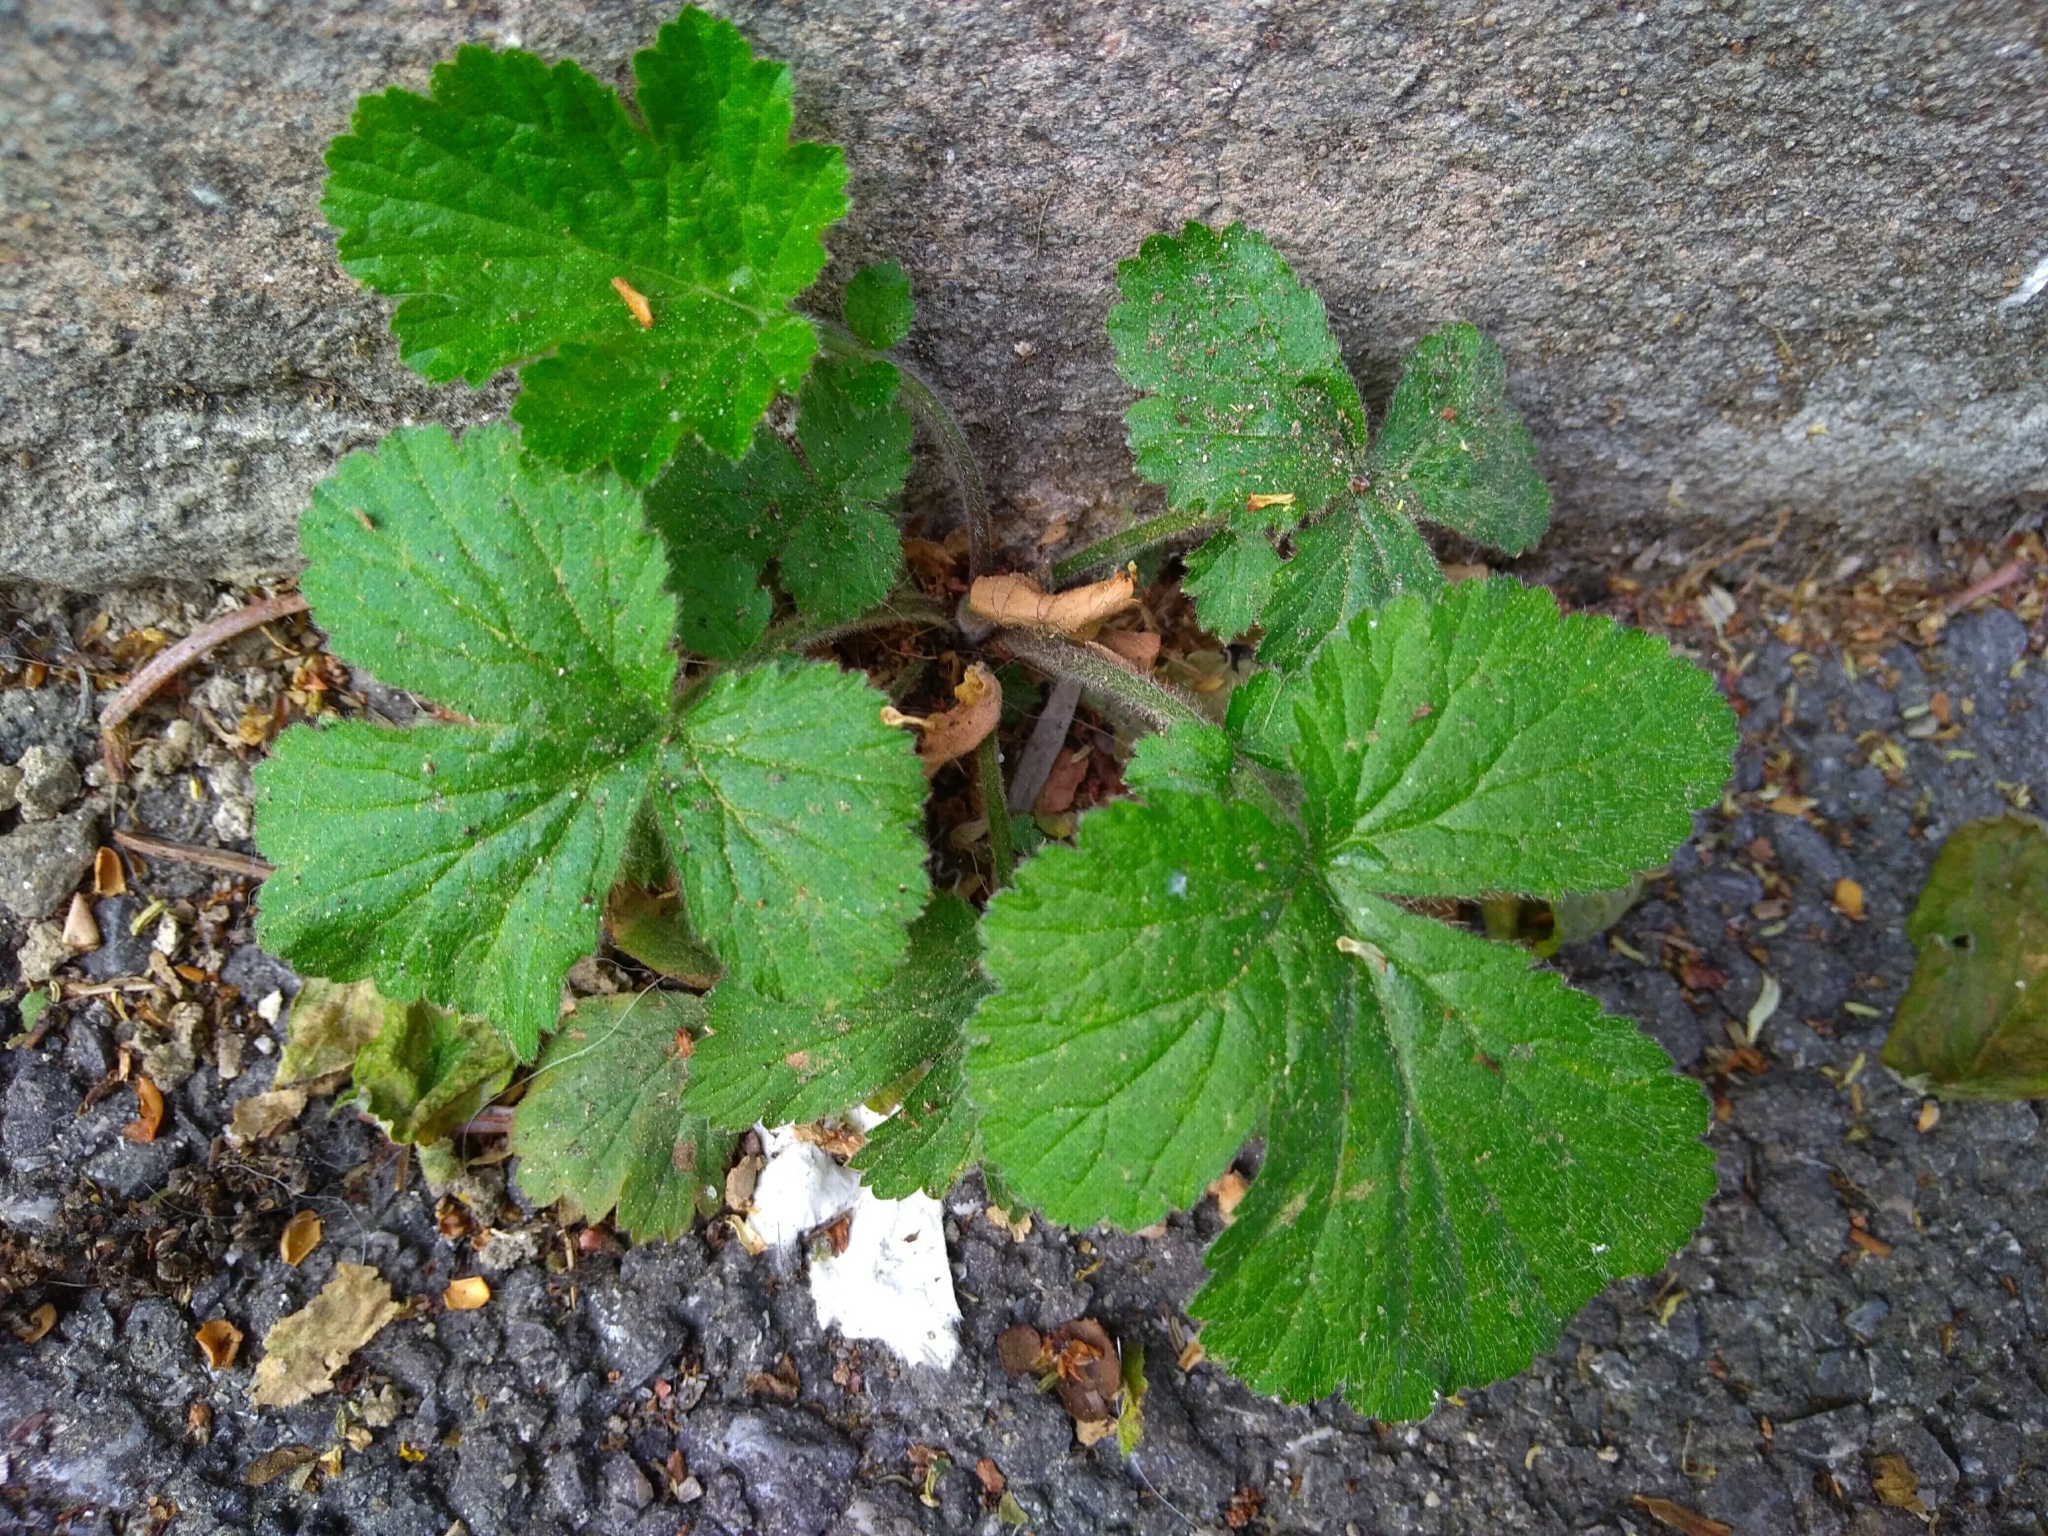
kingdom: Plantae
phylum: Tracheophyta
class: Magnoliopsida
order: Rosales
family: Rosaceae
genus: Geum
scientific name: Geum urbanum
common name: Wood avens
